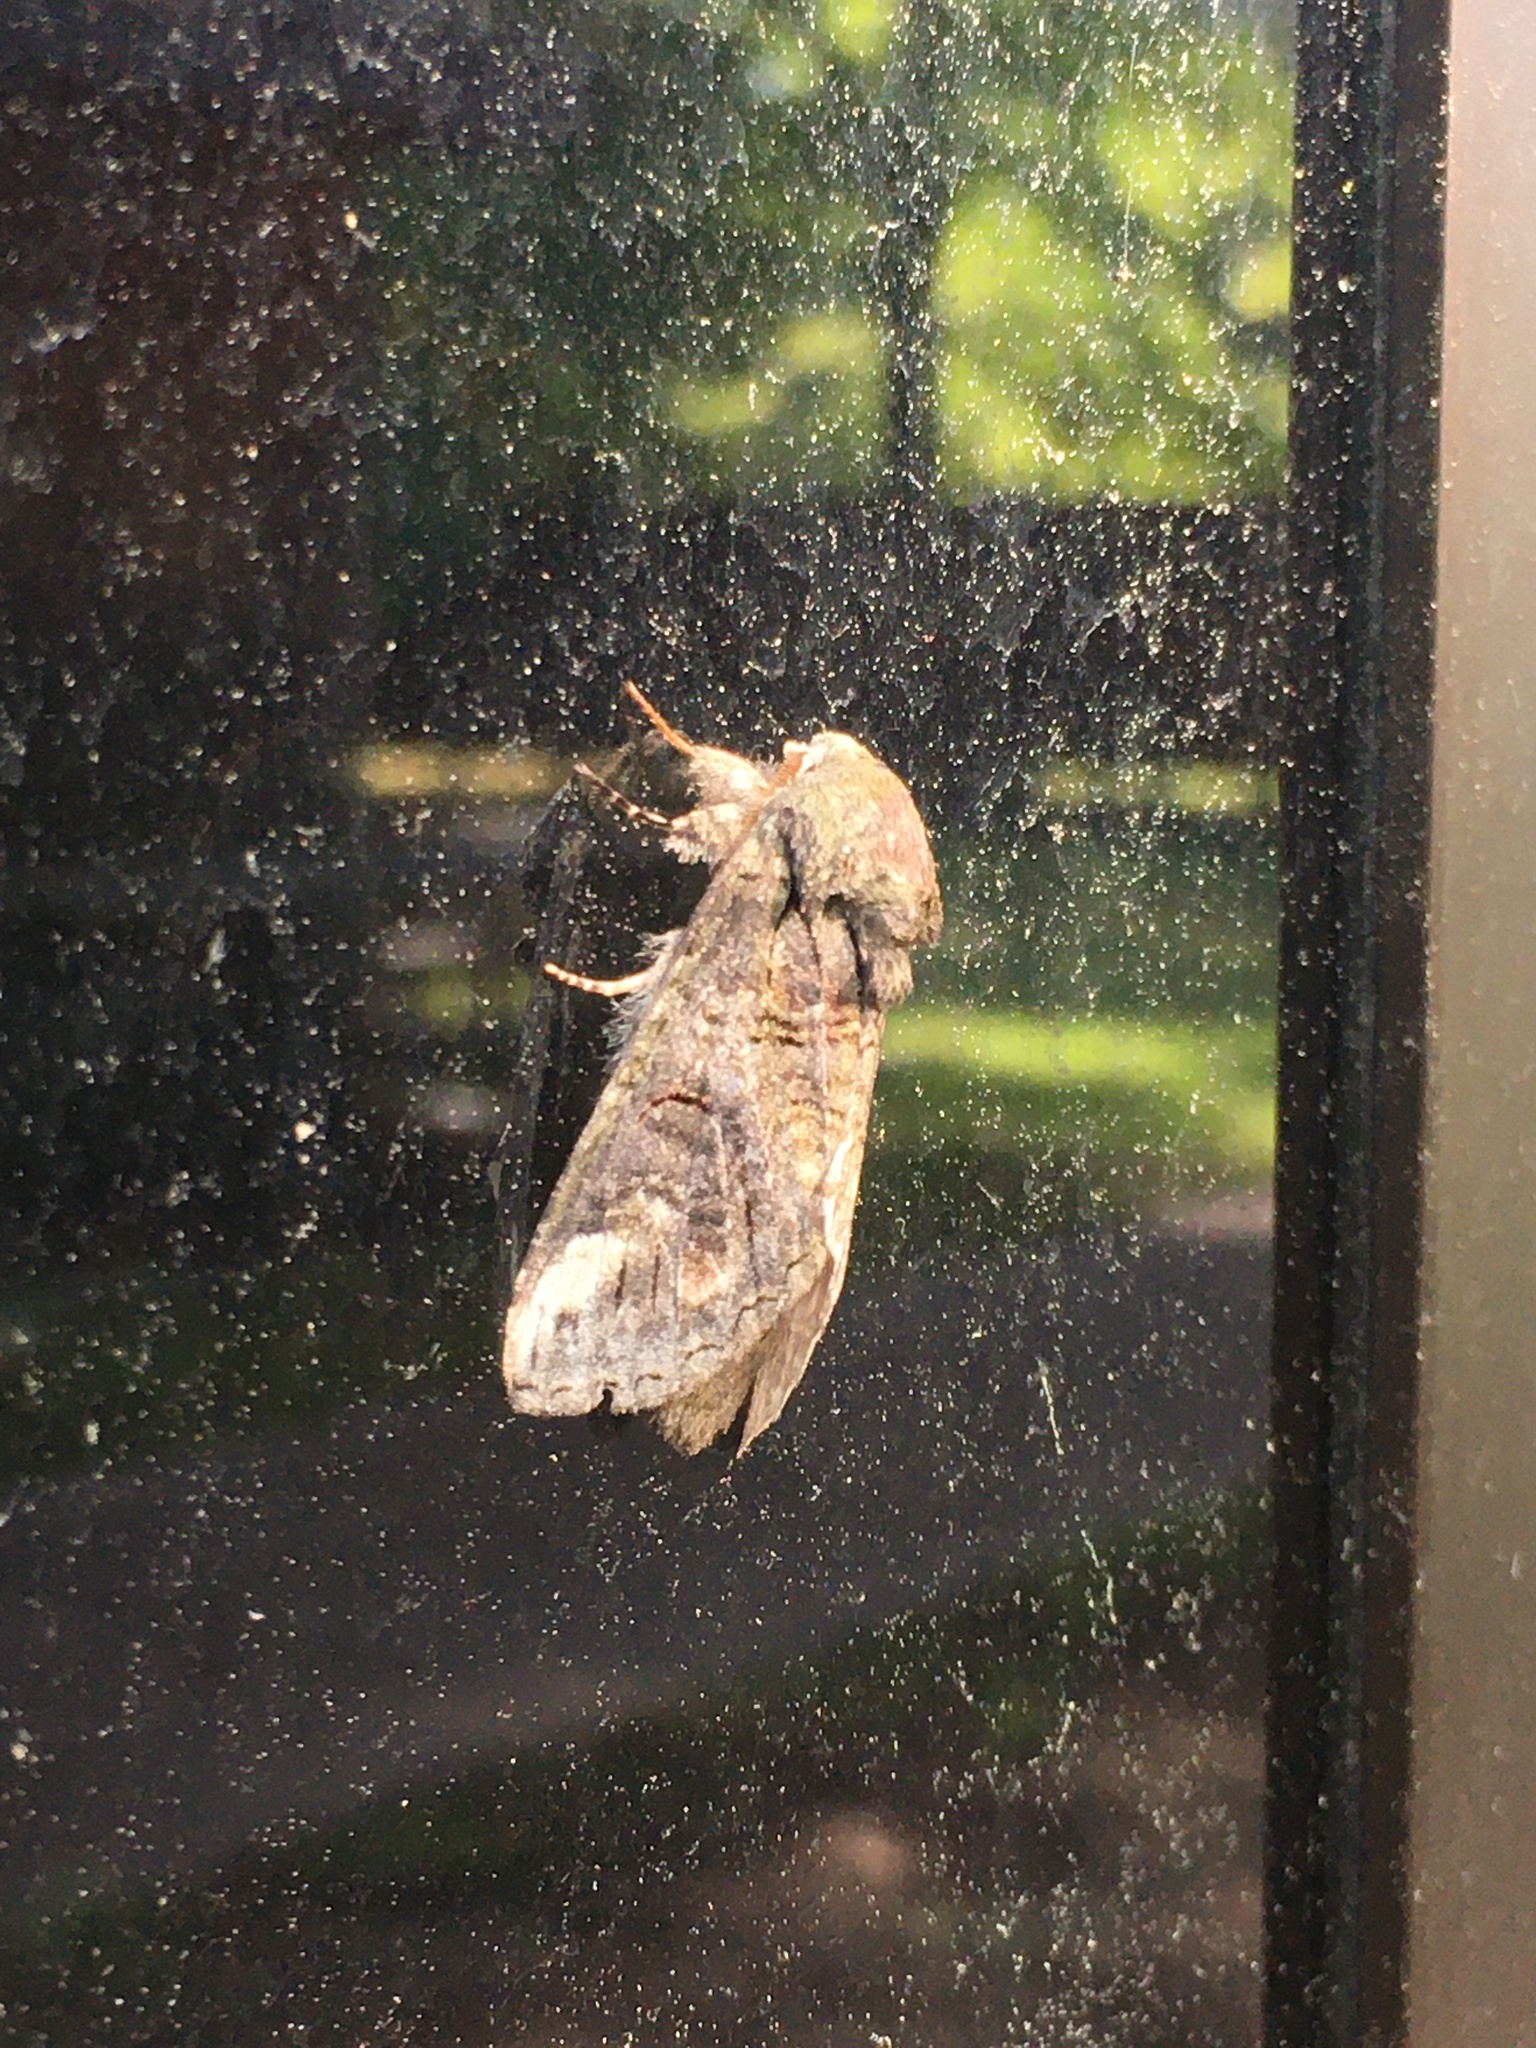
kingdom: Animalia
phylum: Arthropoda
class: Insecta
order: Lepidoptera
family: Notodontidae
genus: Heterocampa
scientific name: Heterocampa obliqua
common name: Oblique heterocampa
